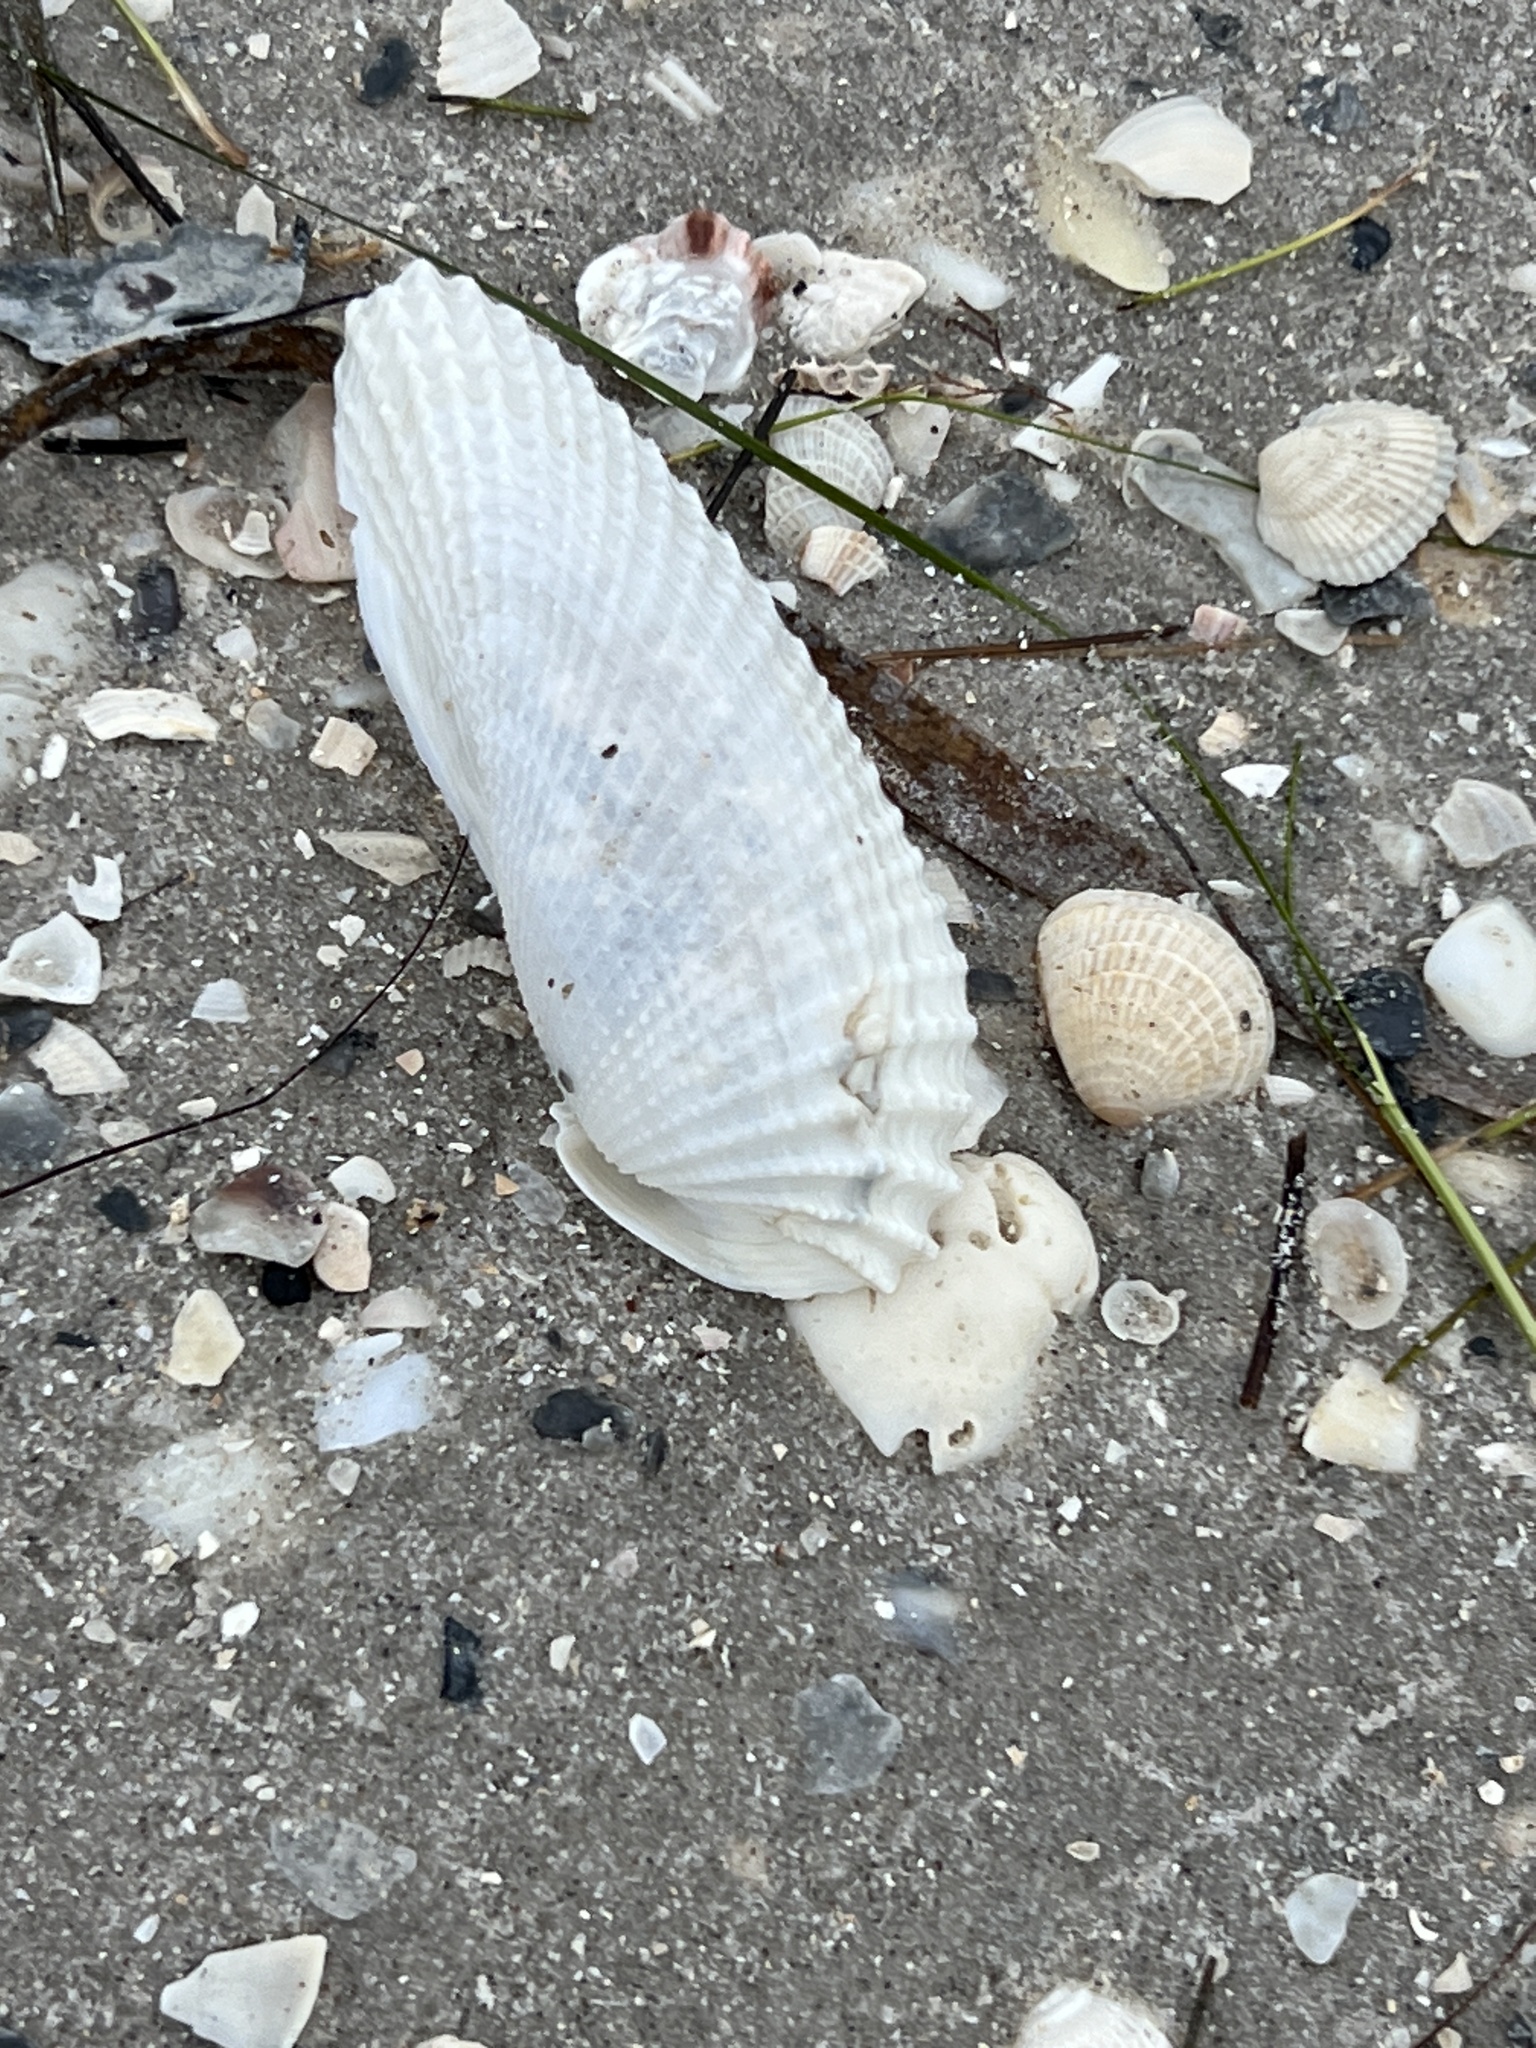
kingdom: Animalia
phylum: Mollusca
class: Bivalvia
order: Myida
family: Pholadidae
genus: Cyrtopleura
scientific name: Cyrtopleura costata
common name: Angel wing
